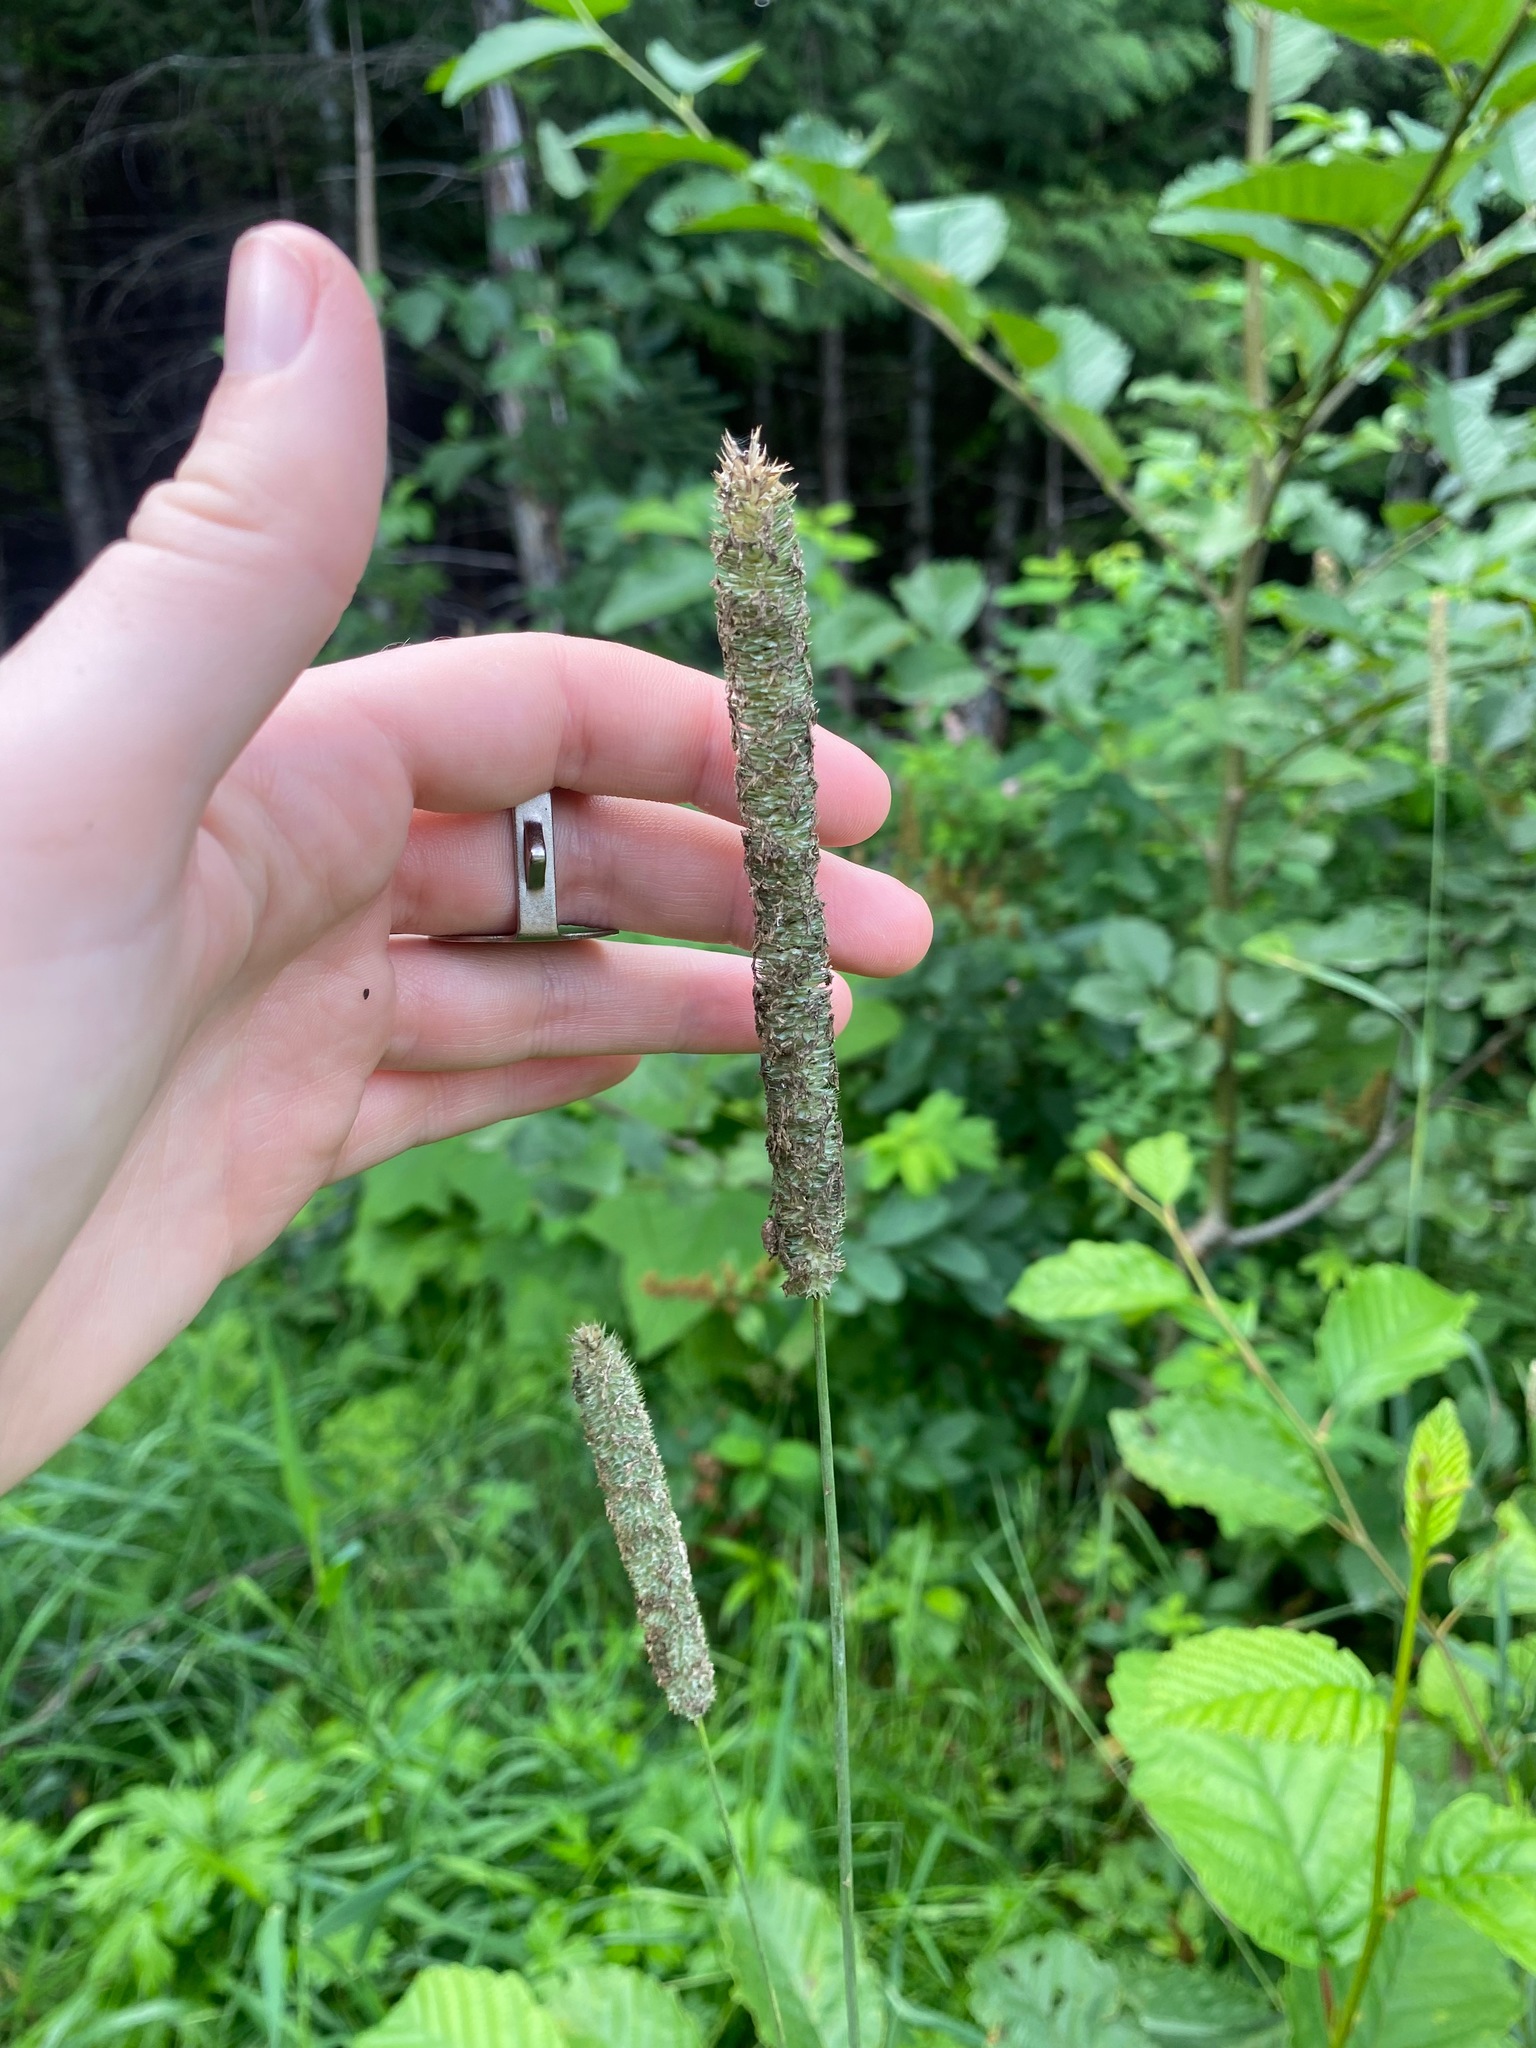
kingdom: Plantae
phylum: Tracheophyta
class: Liliopsida
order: Poales
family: Poaceae
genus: Phleum
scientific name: Phleum pratense
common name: Timothy grass
